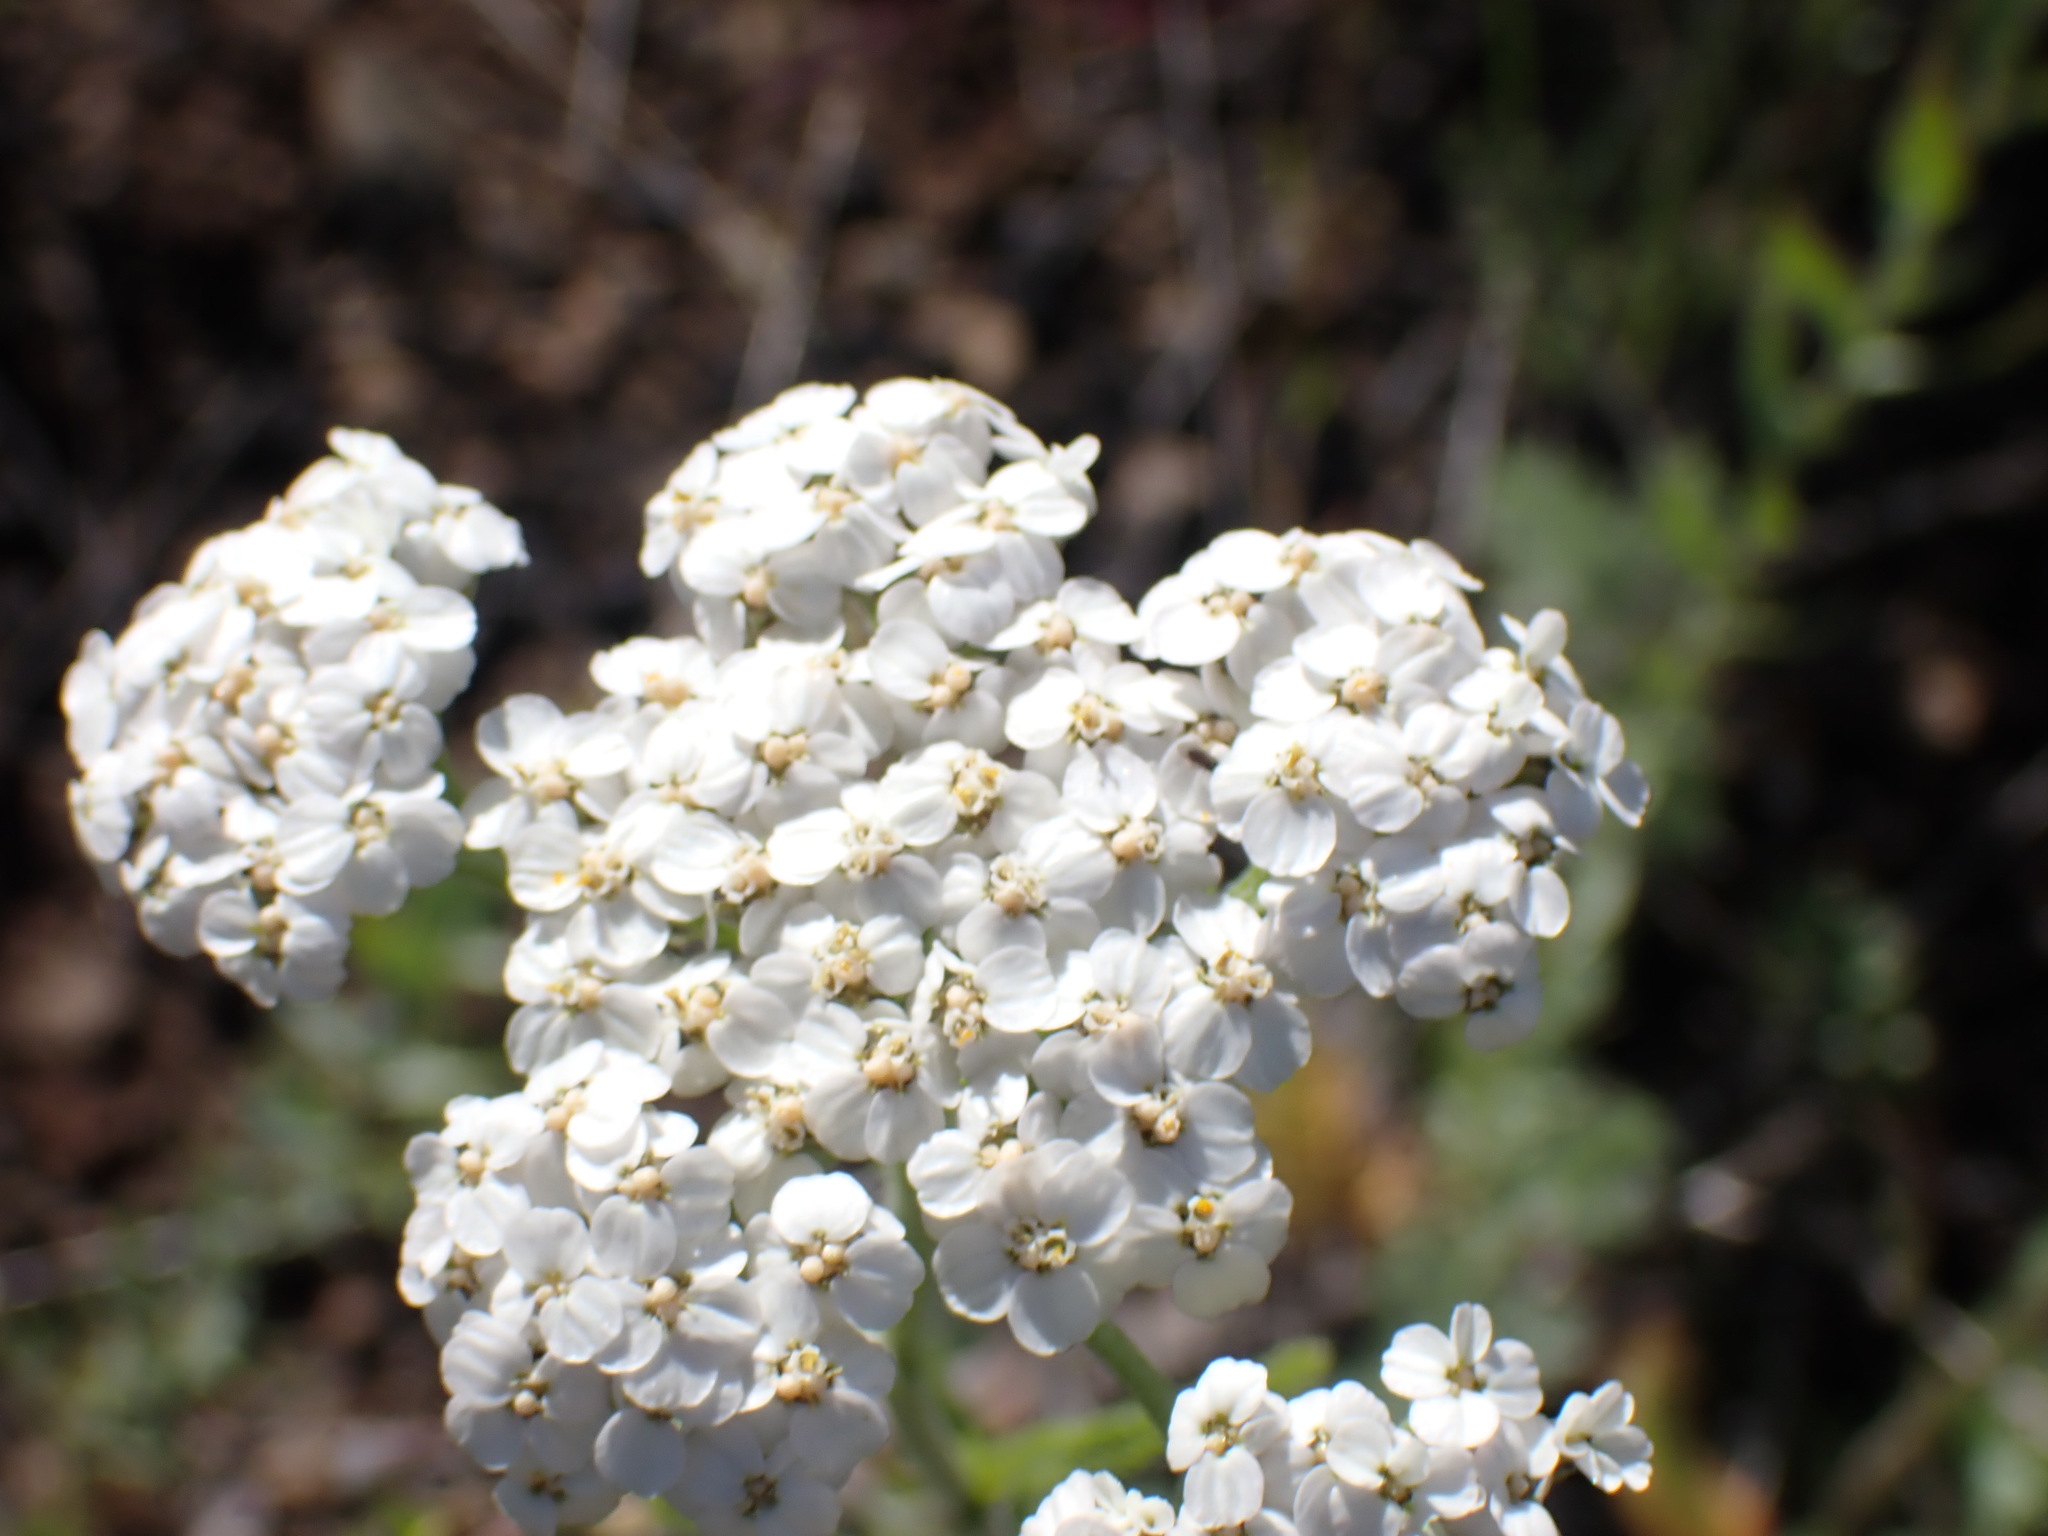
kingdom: Plantae
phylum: Tracheophyta
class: Magnoliopsida
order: Asterales
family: Asteraceae
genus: Achillea
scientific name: Achillea millefolium
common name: Yarrow
